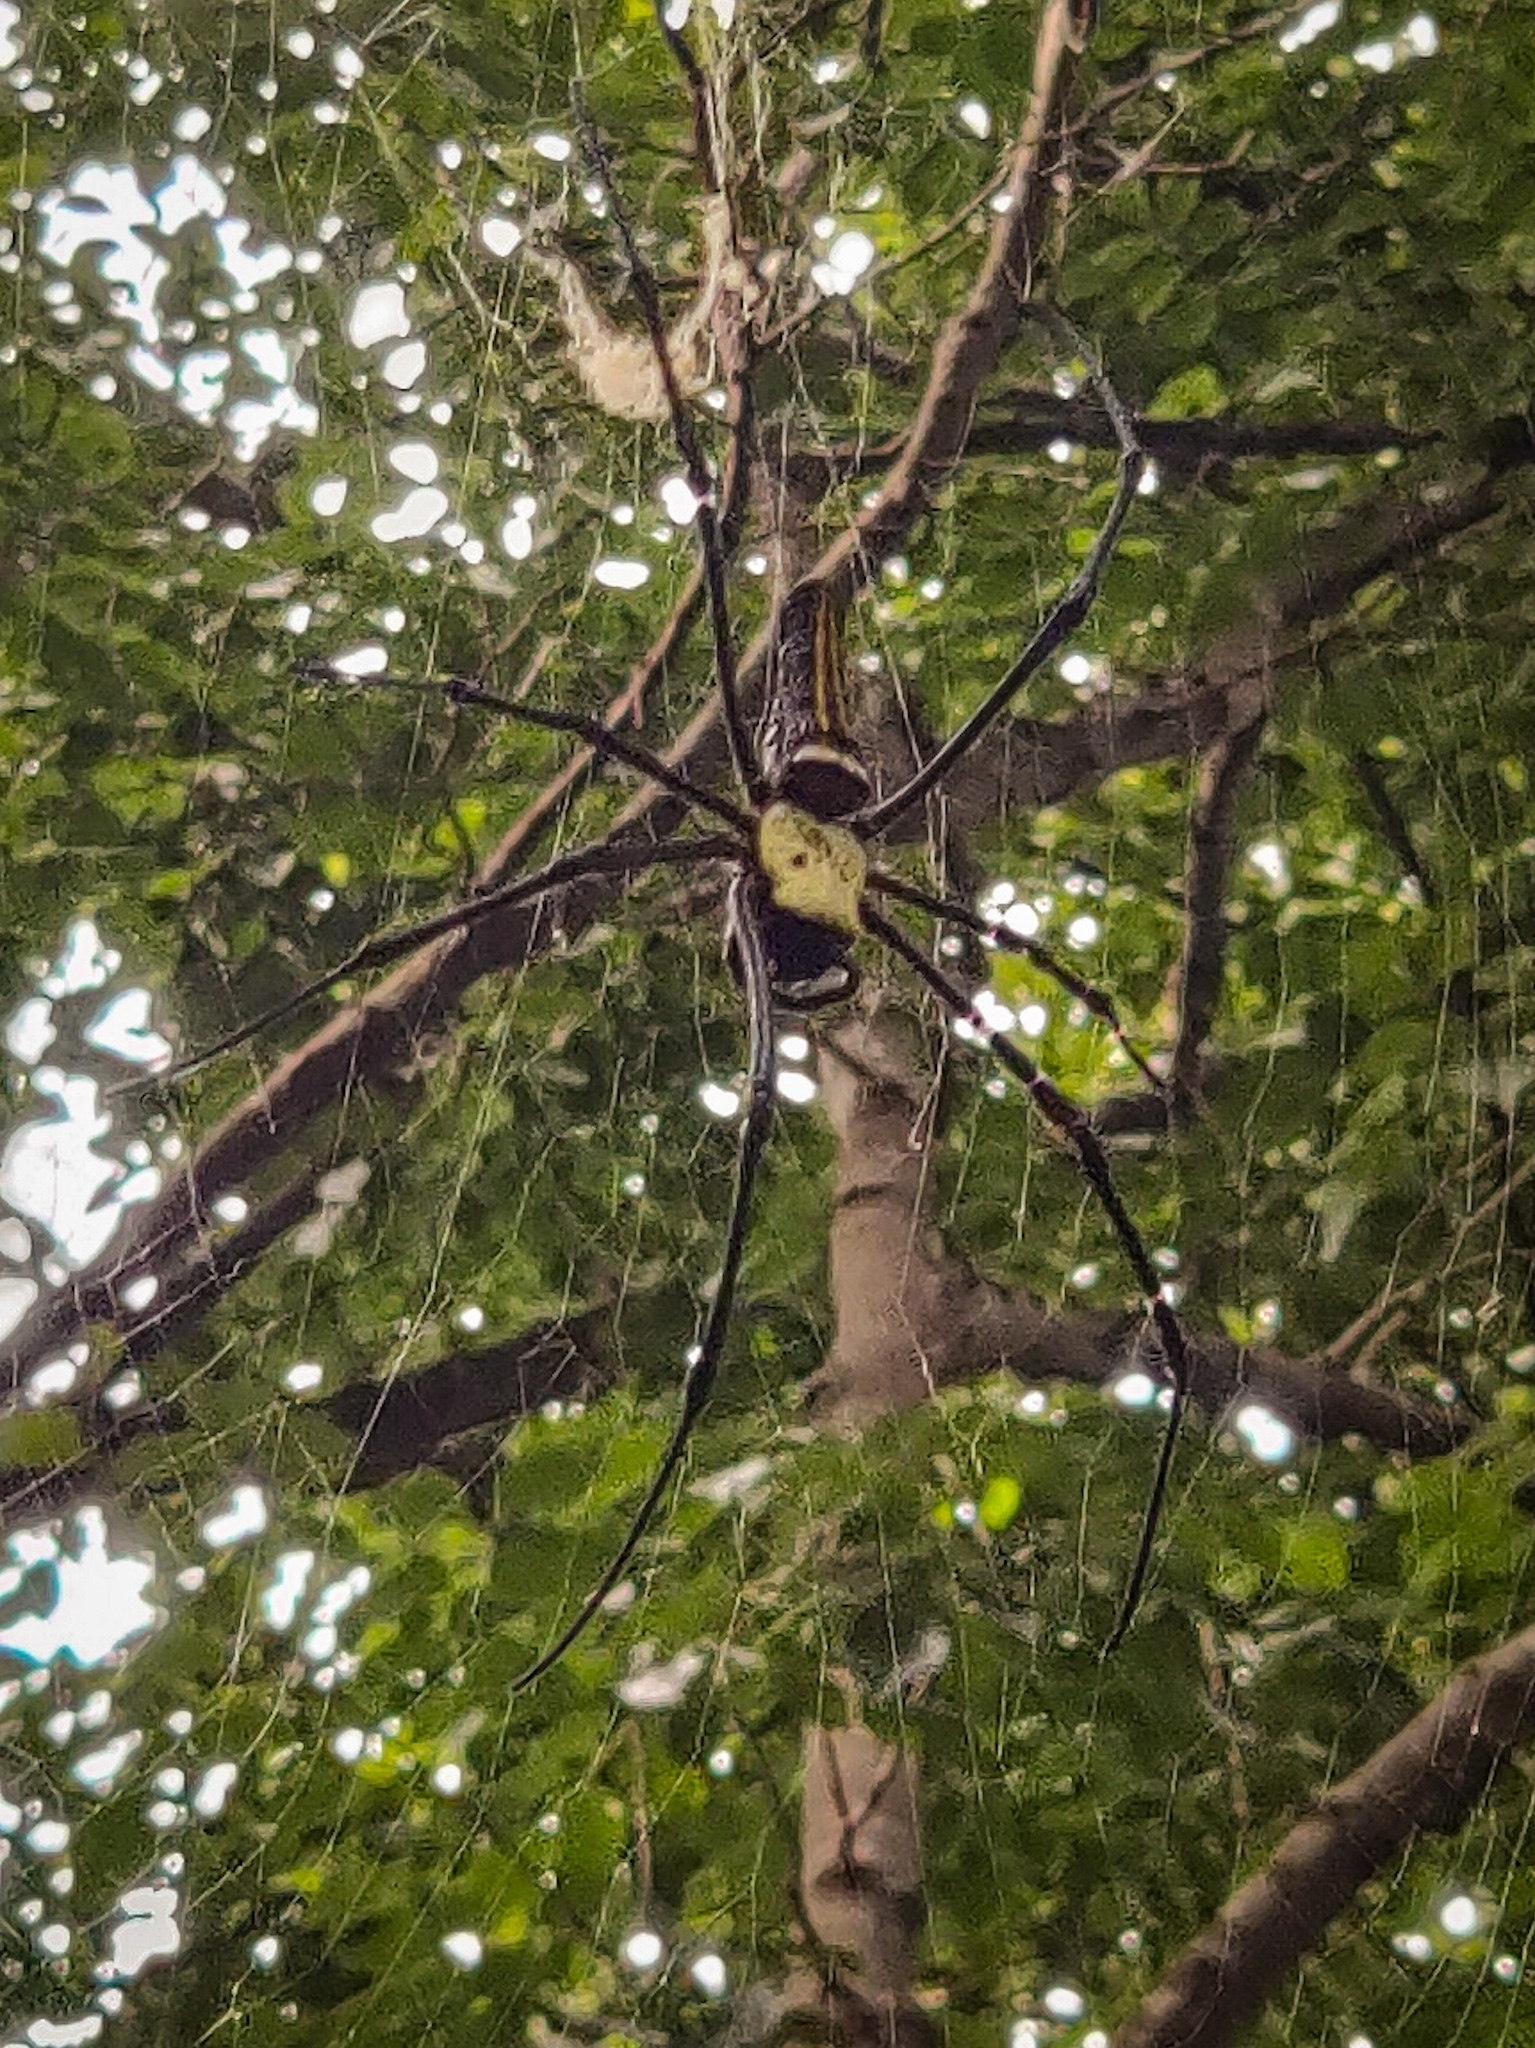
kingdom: Animalia
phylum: Arthropoda
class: Arachnida
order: Araneae
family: Araneidae
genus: Nephila
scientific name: Nephila pilipes
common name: Giant golden orb weaver
